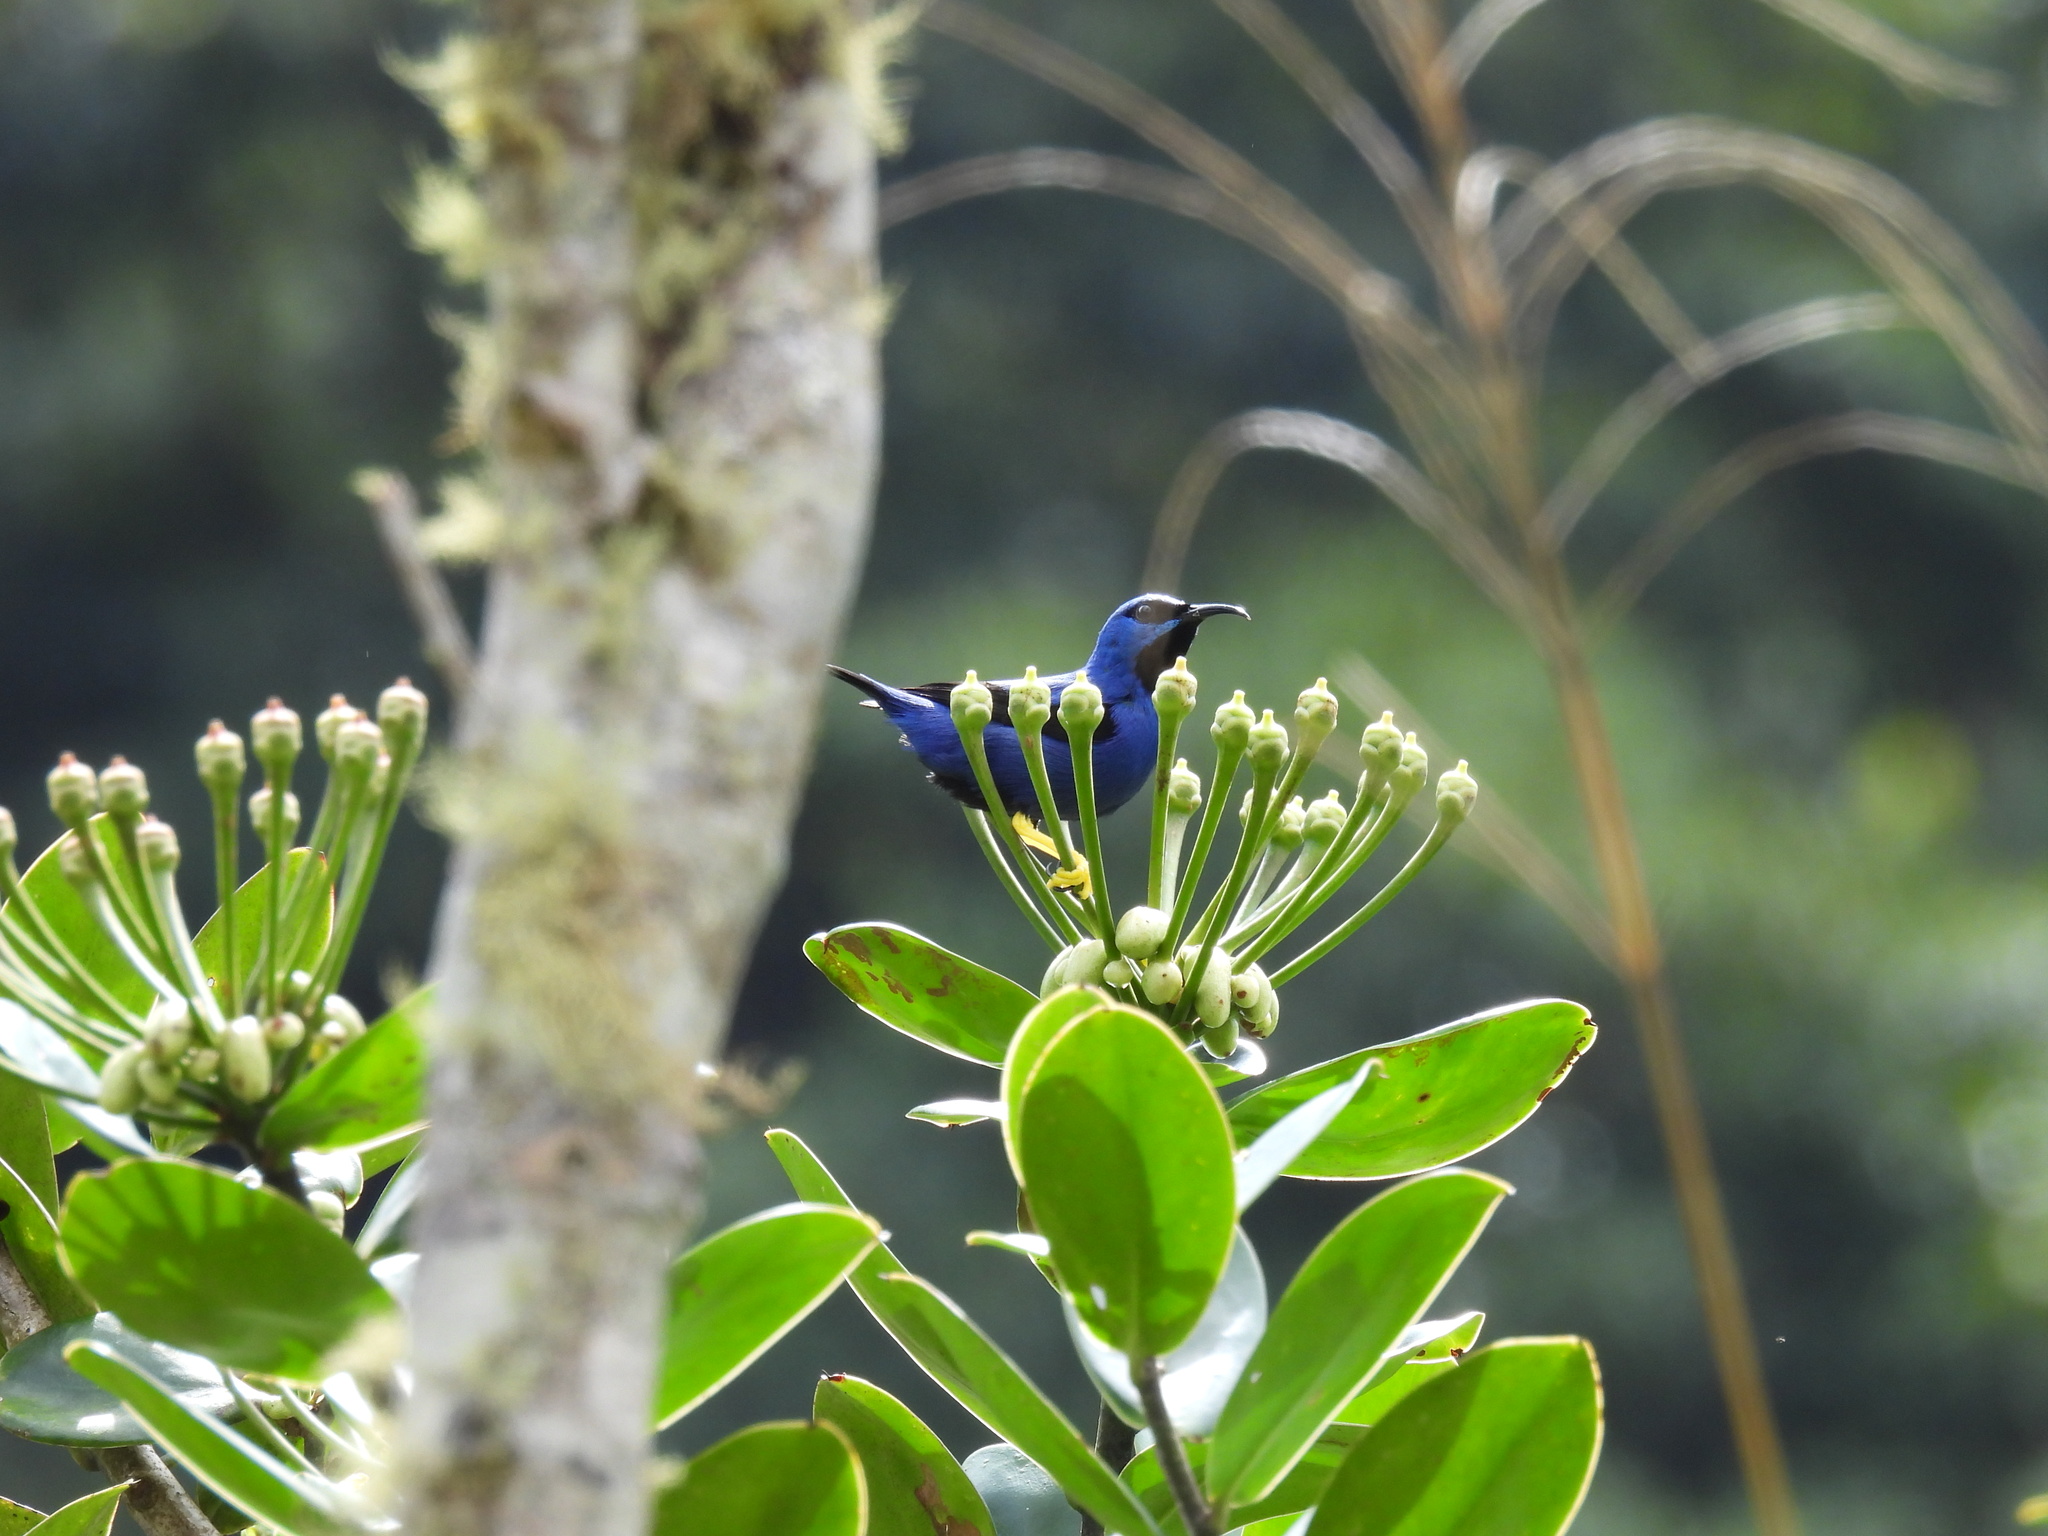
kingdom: Animalia
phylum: Chordata
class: Aves
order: Passeriformes
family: Thraupidae
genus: Cyanerpes
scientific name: Cyanerpes caeruleus
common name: Purple honeycreeper
